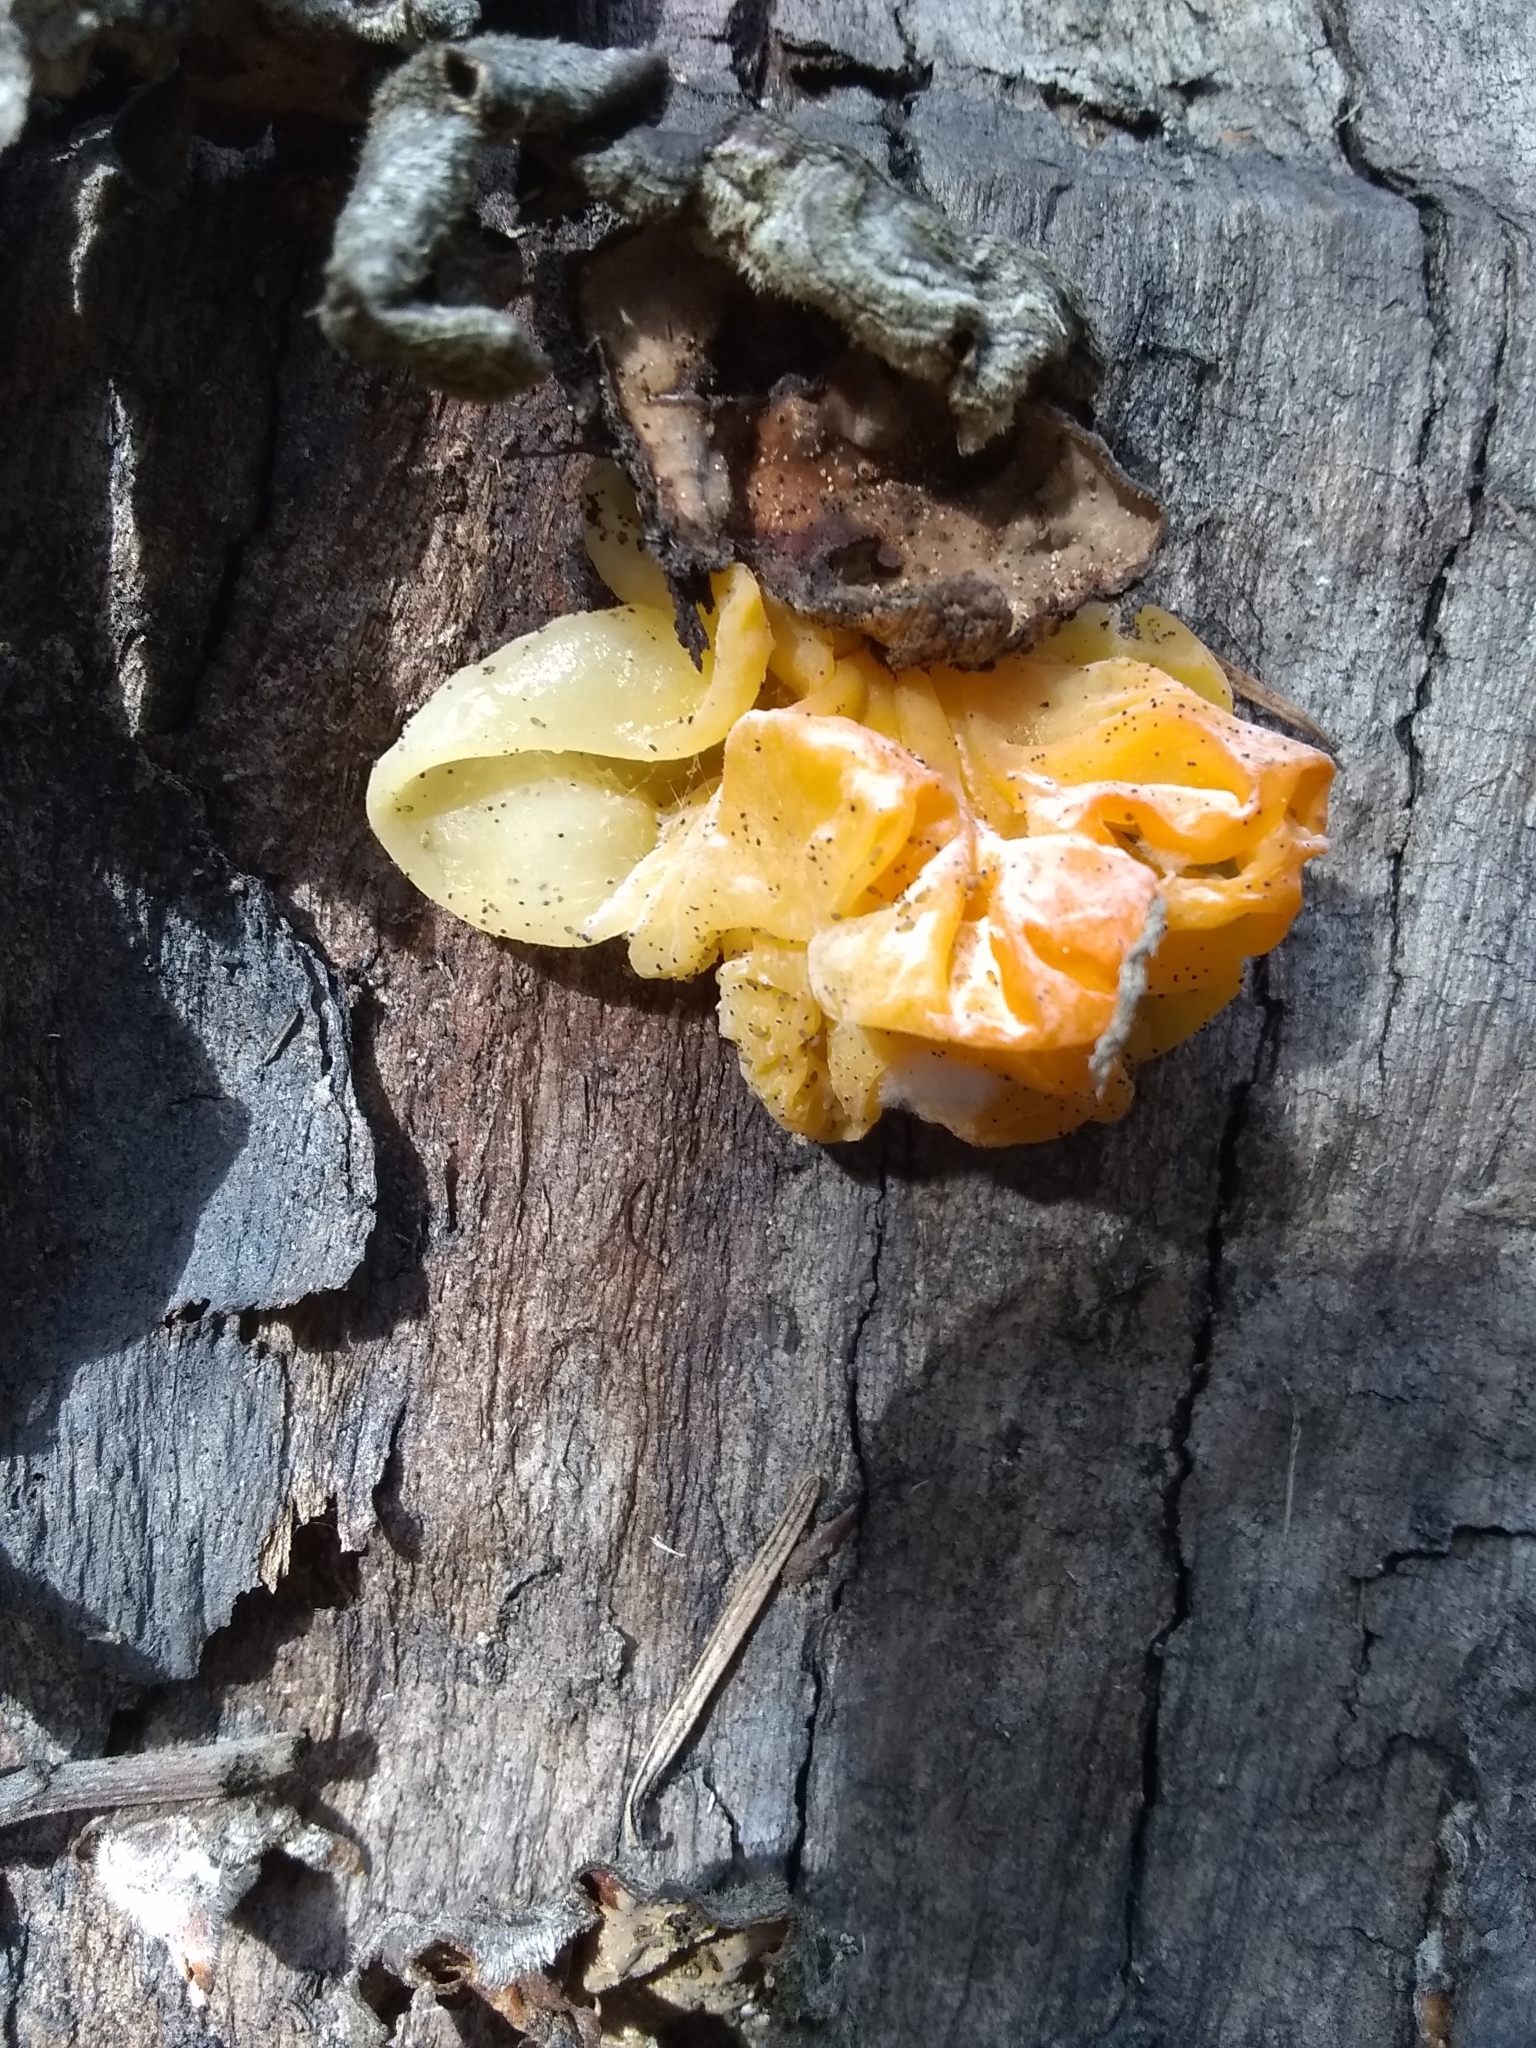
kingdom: Fungi
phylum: Basidiomycota
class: Tremellomycetes
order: Tremellales
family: Naemateliaceae
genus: Naematelia
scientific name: Naematelia aurantia
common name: Golden ear
